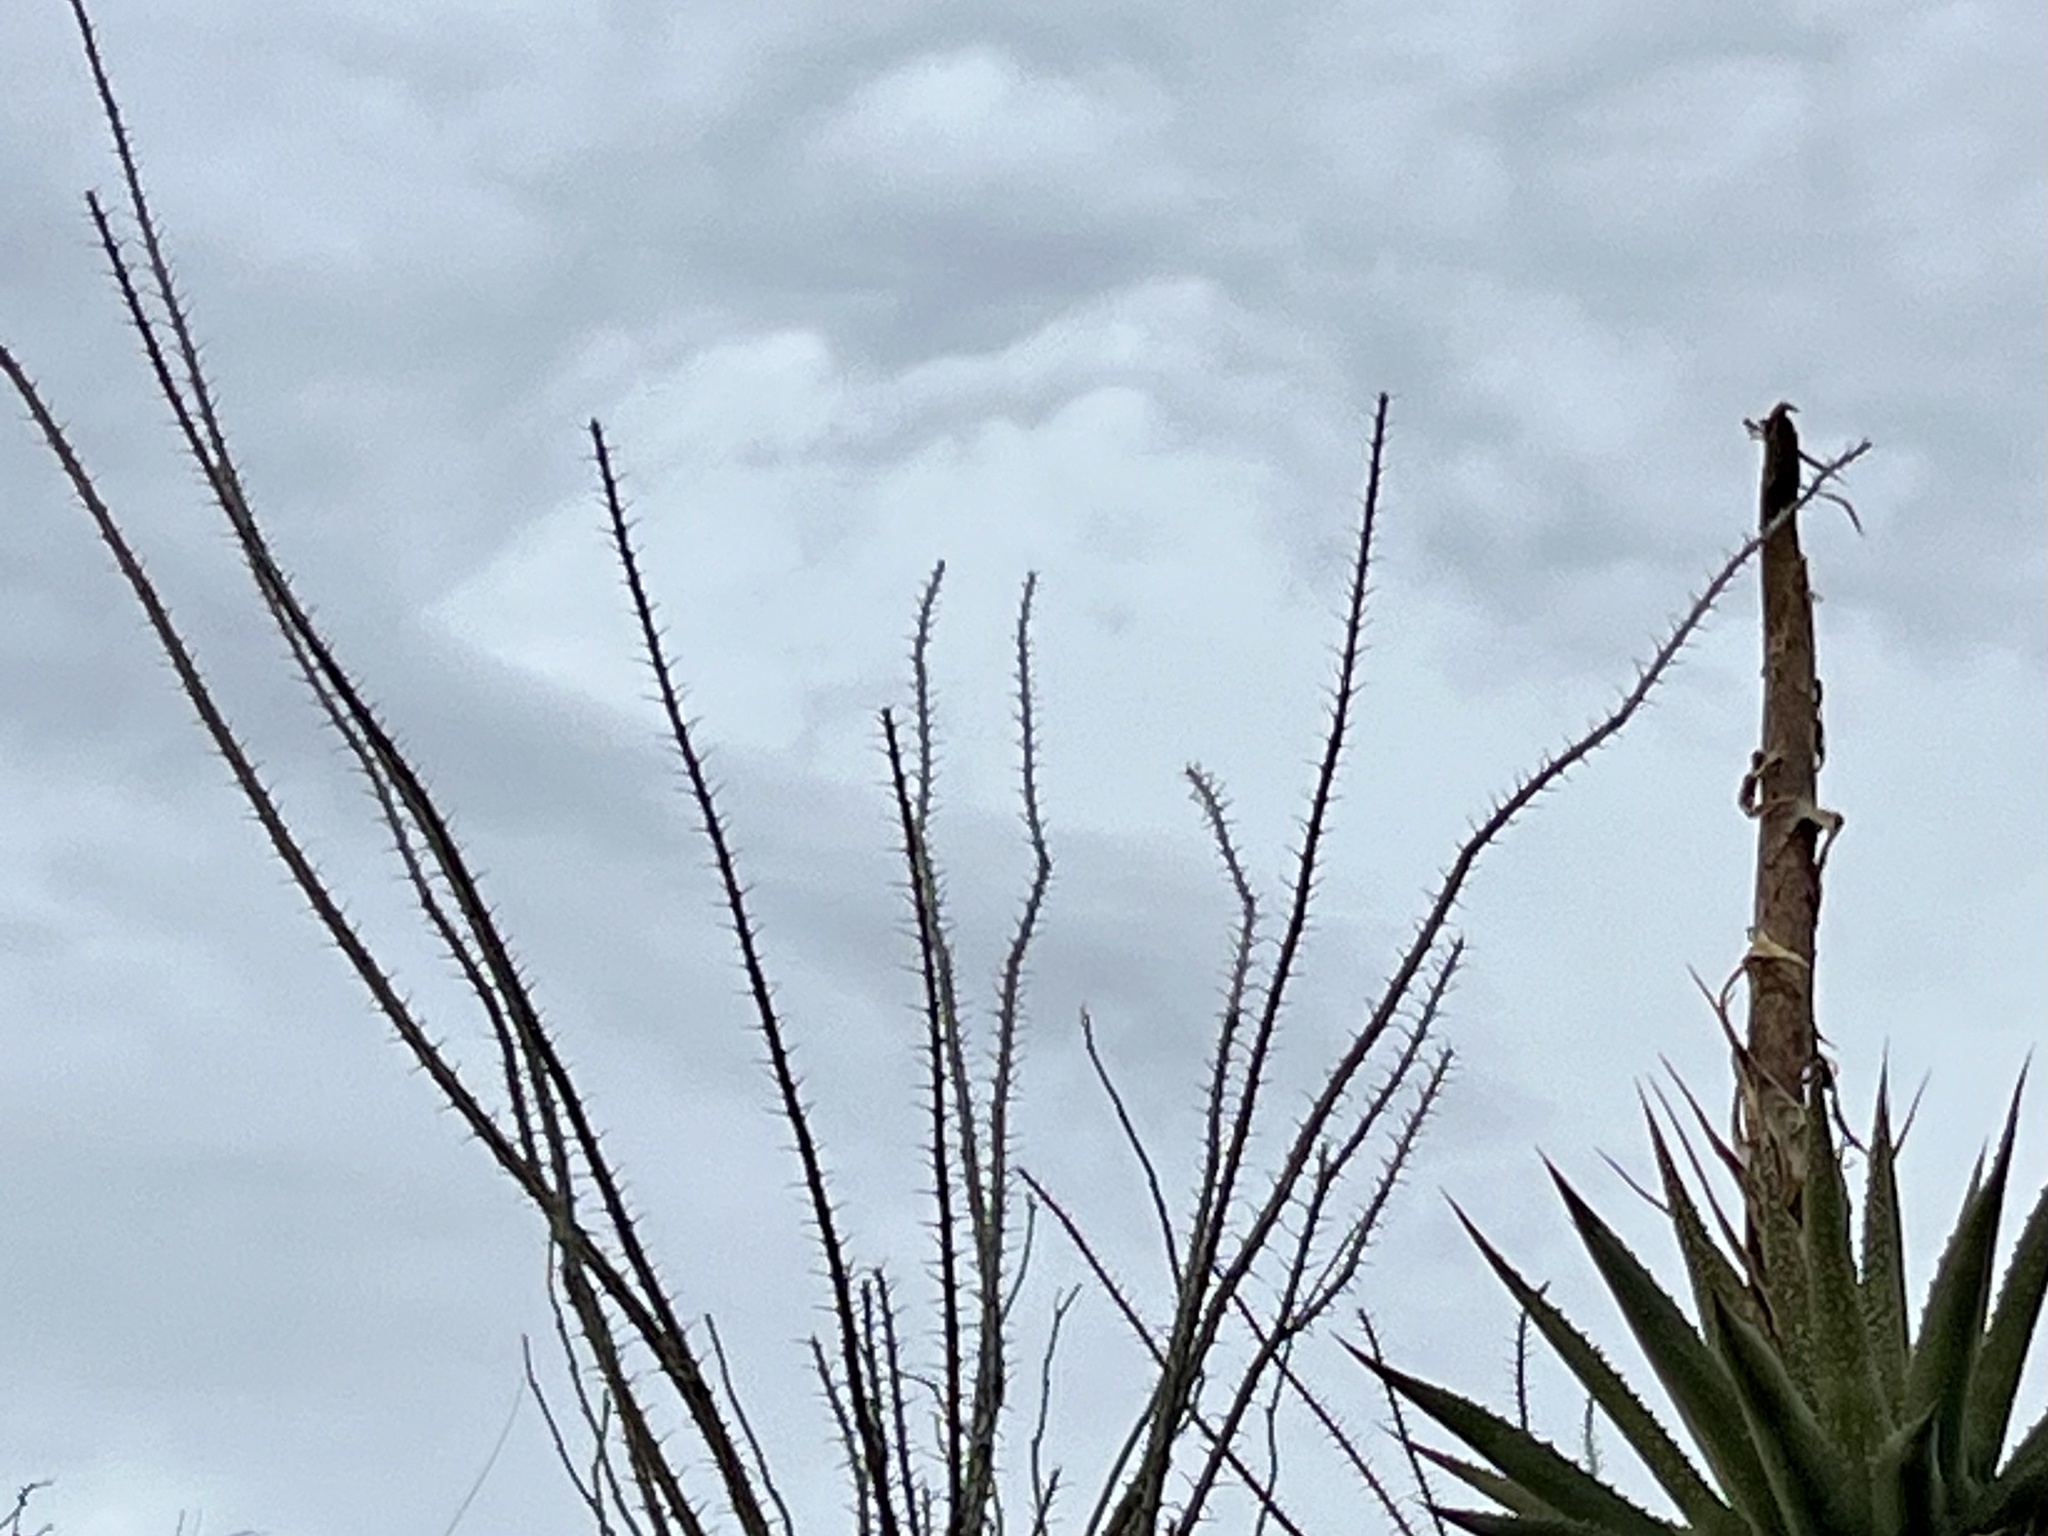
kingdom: Plantae
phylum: Tracheophyta
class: Magnoliopsida
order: Ericales
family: Fouquieriaceae
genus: Fouquieria
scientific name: Fouquieria splendens
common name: Vine-cactus
